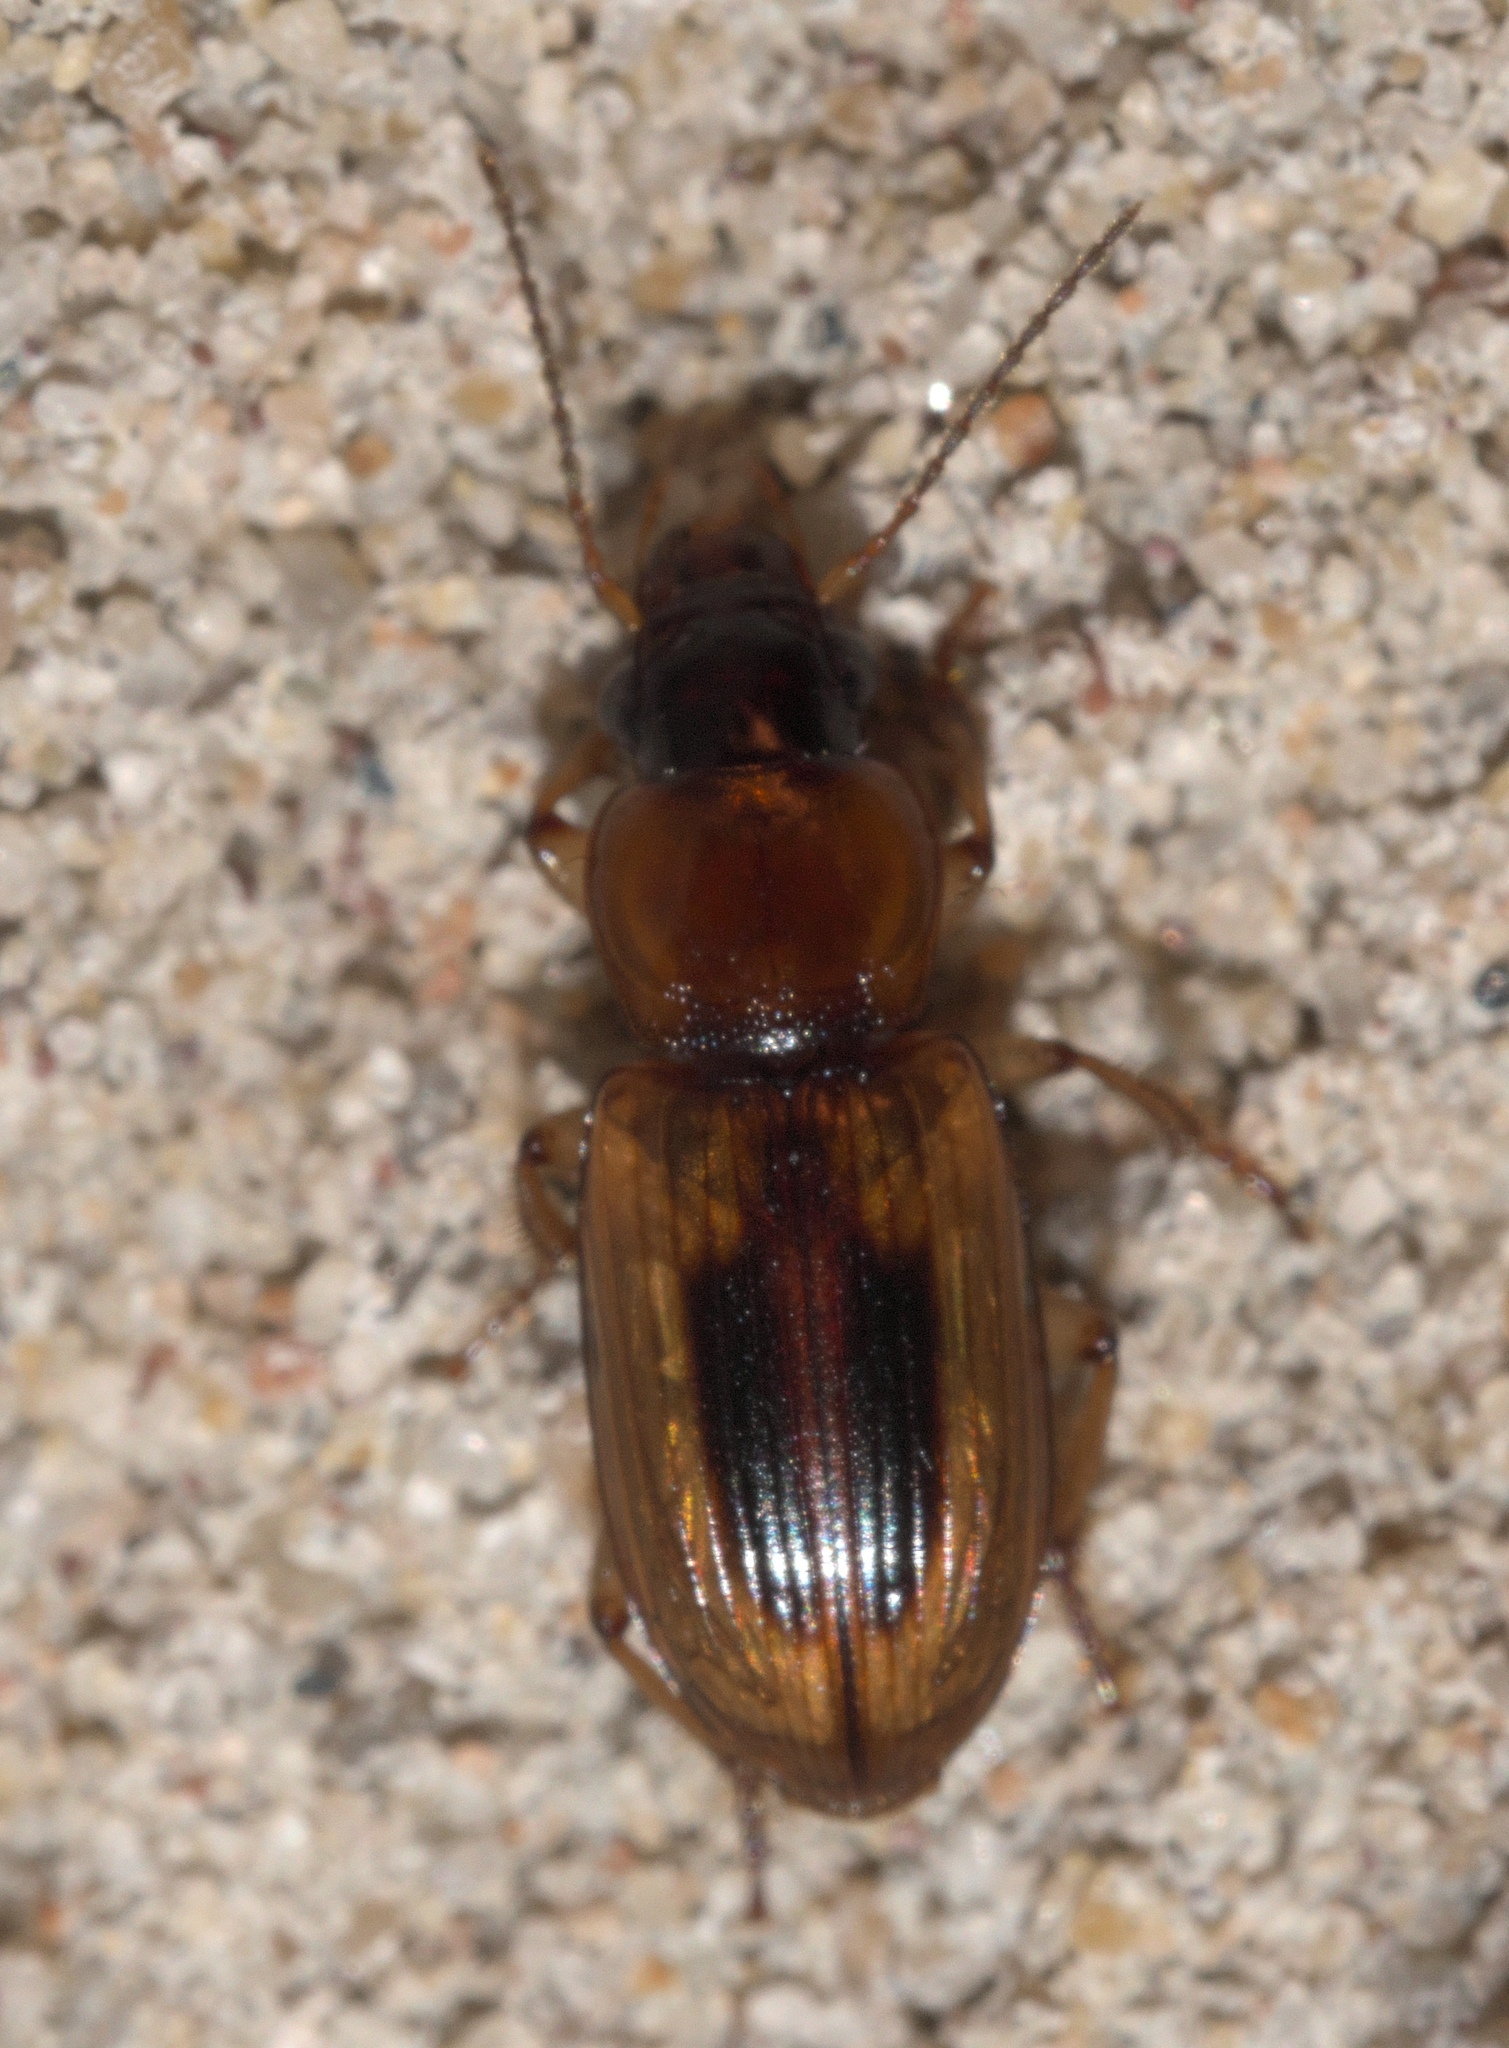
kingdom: Animalia
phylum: Arthropoda
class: Insecta
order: Coleoptera
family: Carabidae
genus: Stenolophus
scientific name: Stenolophus lecontei
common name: Leconte's seedcorn beetle
